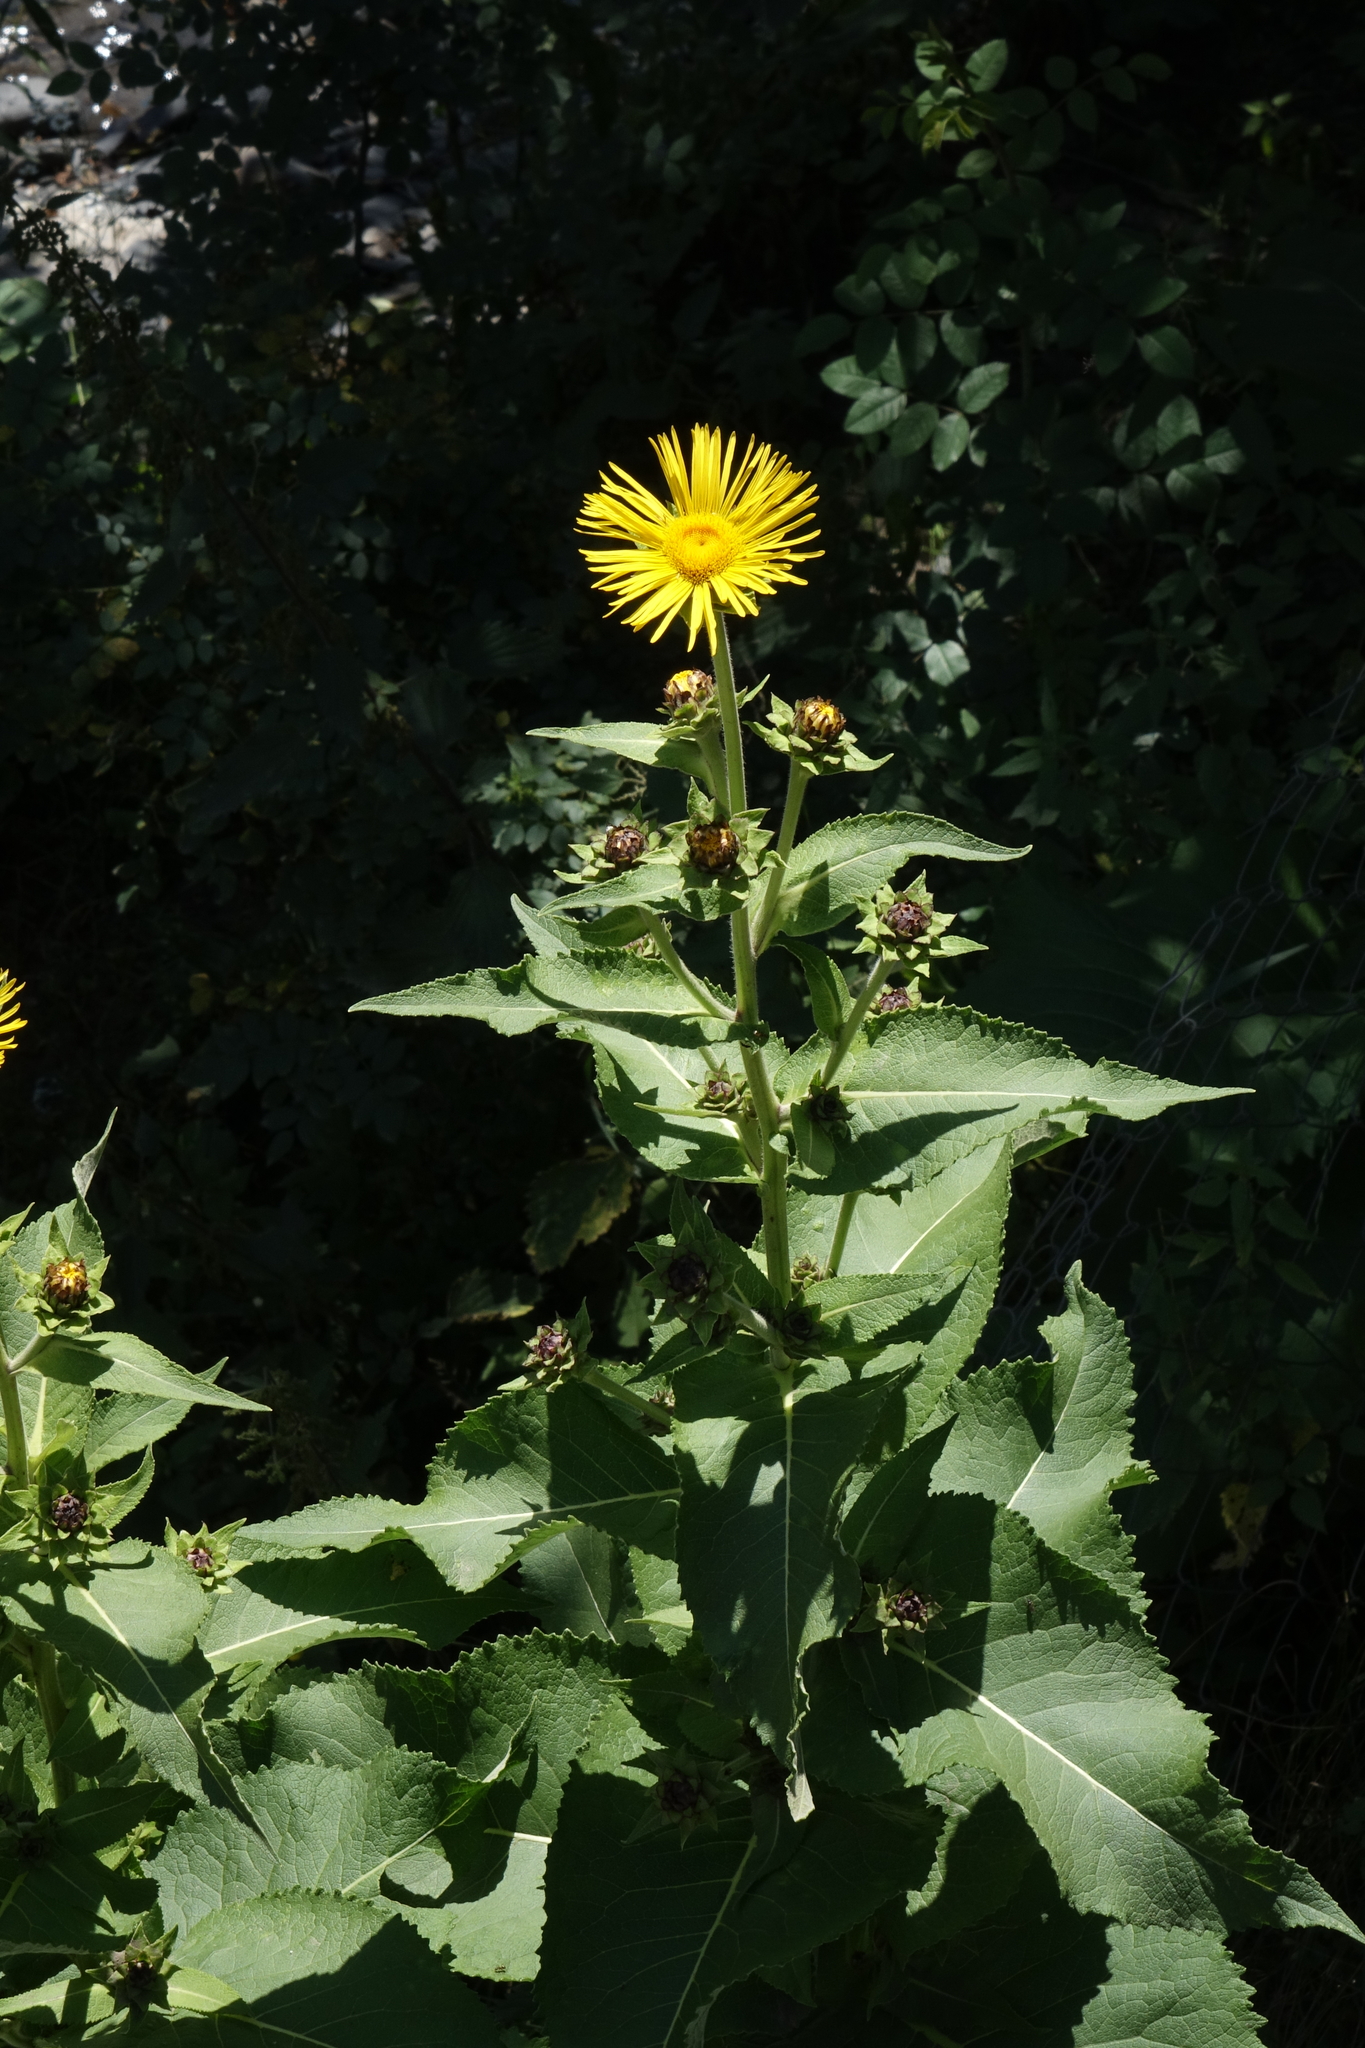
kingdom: Plantae
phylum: Tracheophyta
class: Magnoliopsida
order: Asterales
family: Asteraceae
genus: Inula
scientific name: Inula helenium
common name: Elecampane
